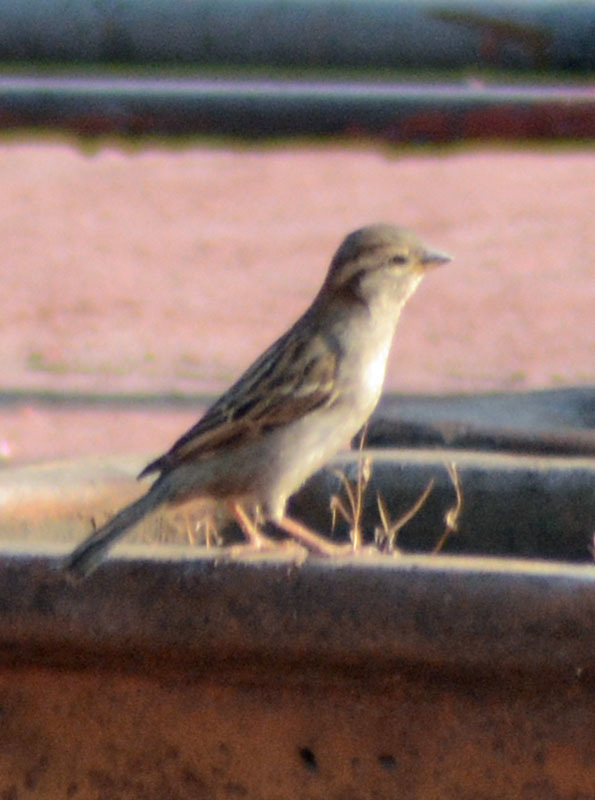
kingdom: Animalia
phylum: Chordata
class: Aves
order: Passeriformes
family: Passeridae
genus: Passer
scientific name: Passer domesticus
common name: House sparrow
